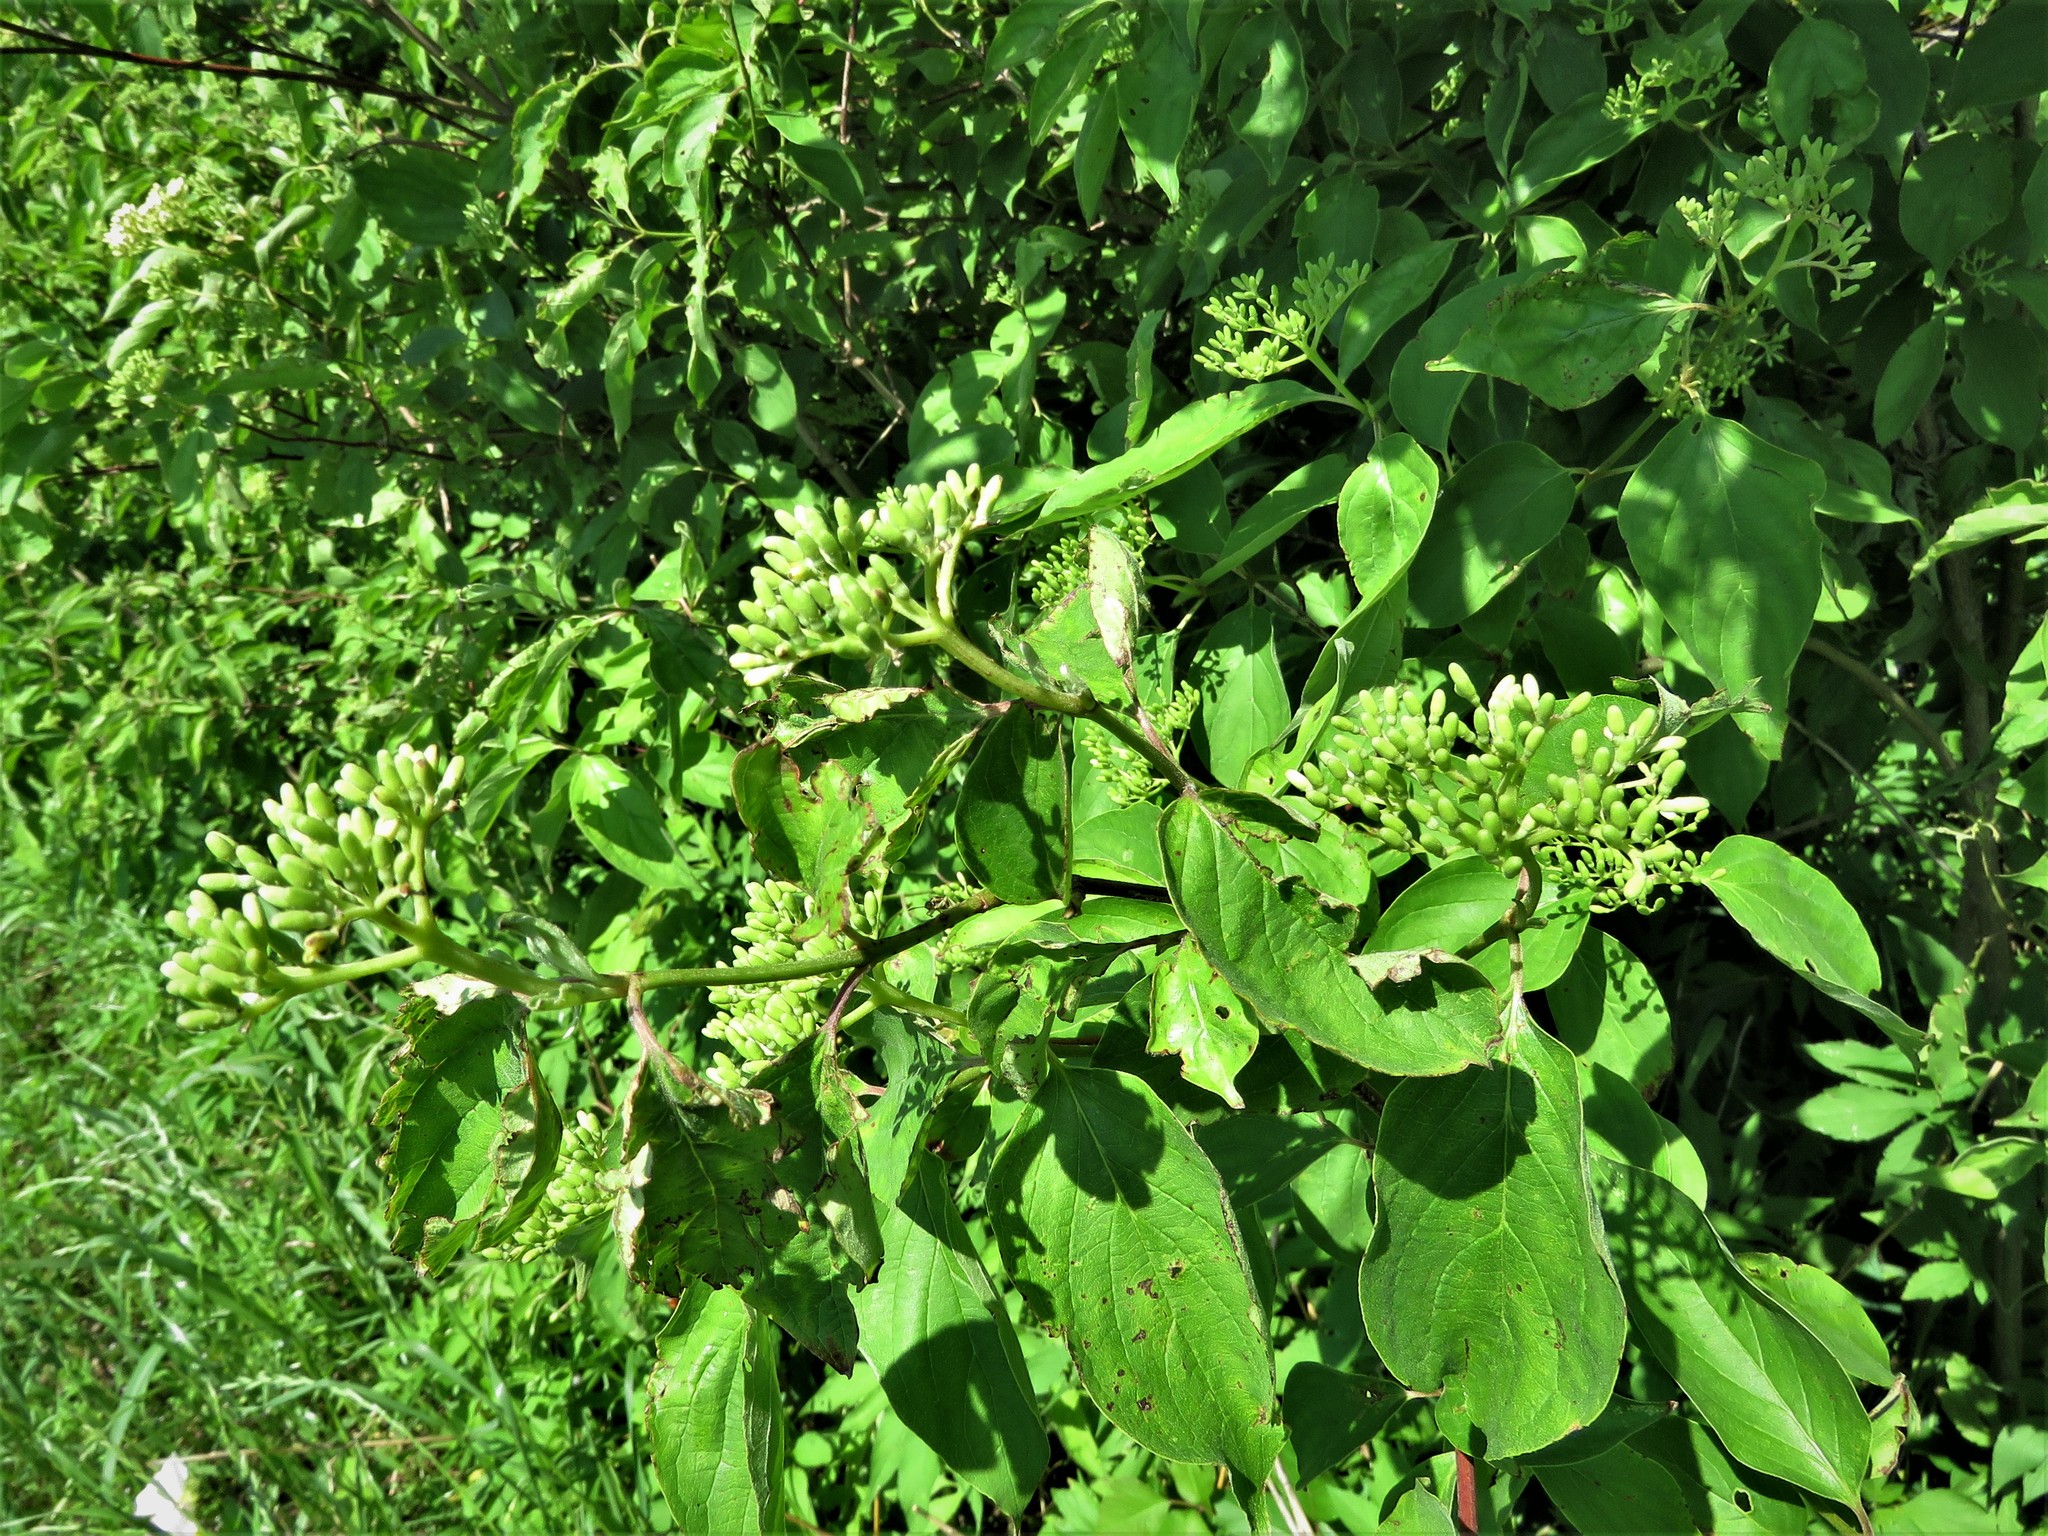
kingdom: Plantae
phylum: Tracheophyta
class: Magnoliopsida
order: Cornales
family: Cornaceae
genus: Cornus
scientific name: Cornus drummondii
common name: Rough-leaf dogwood
